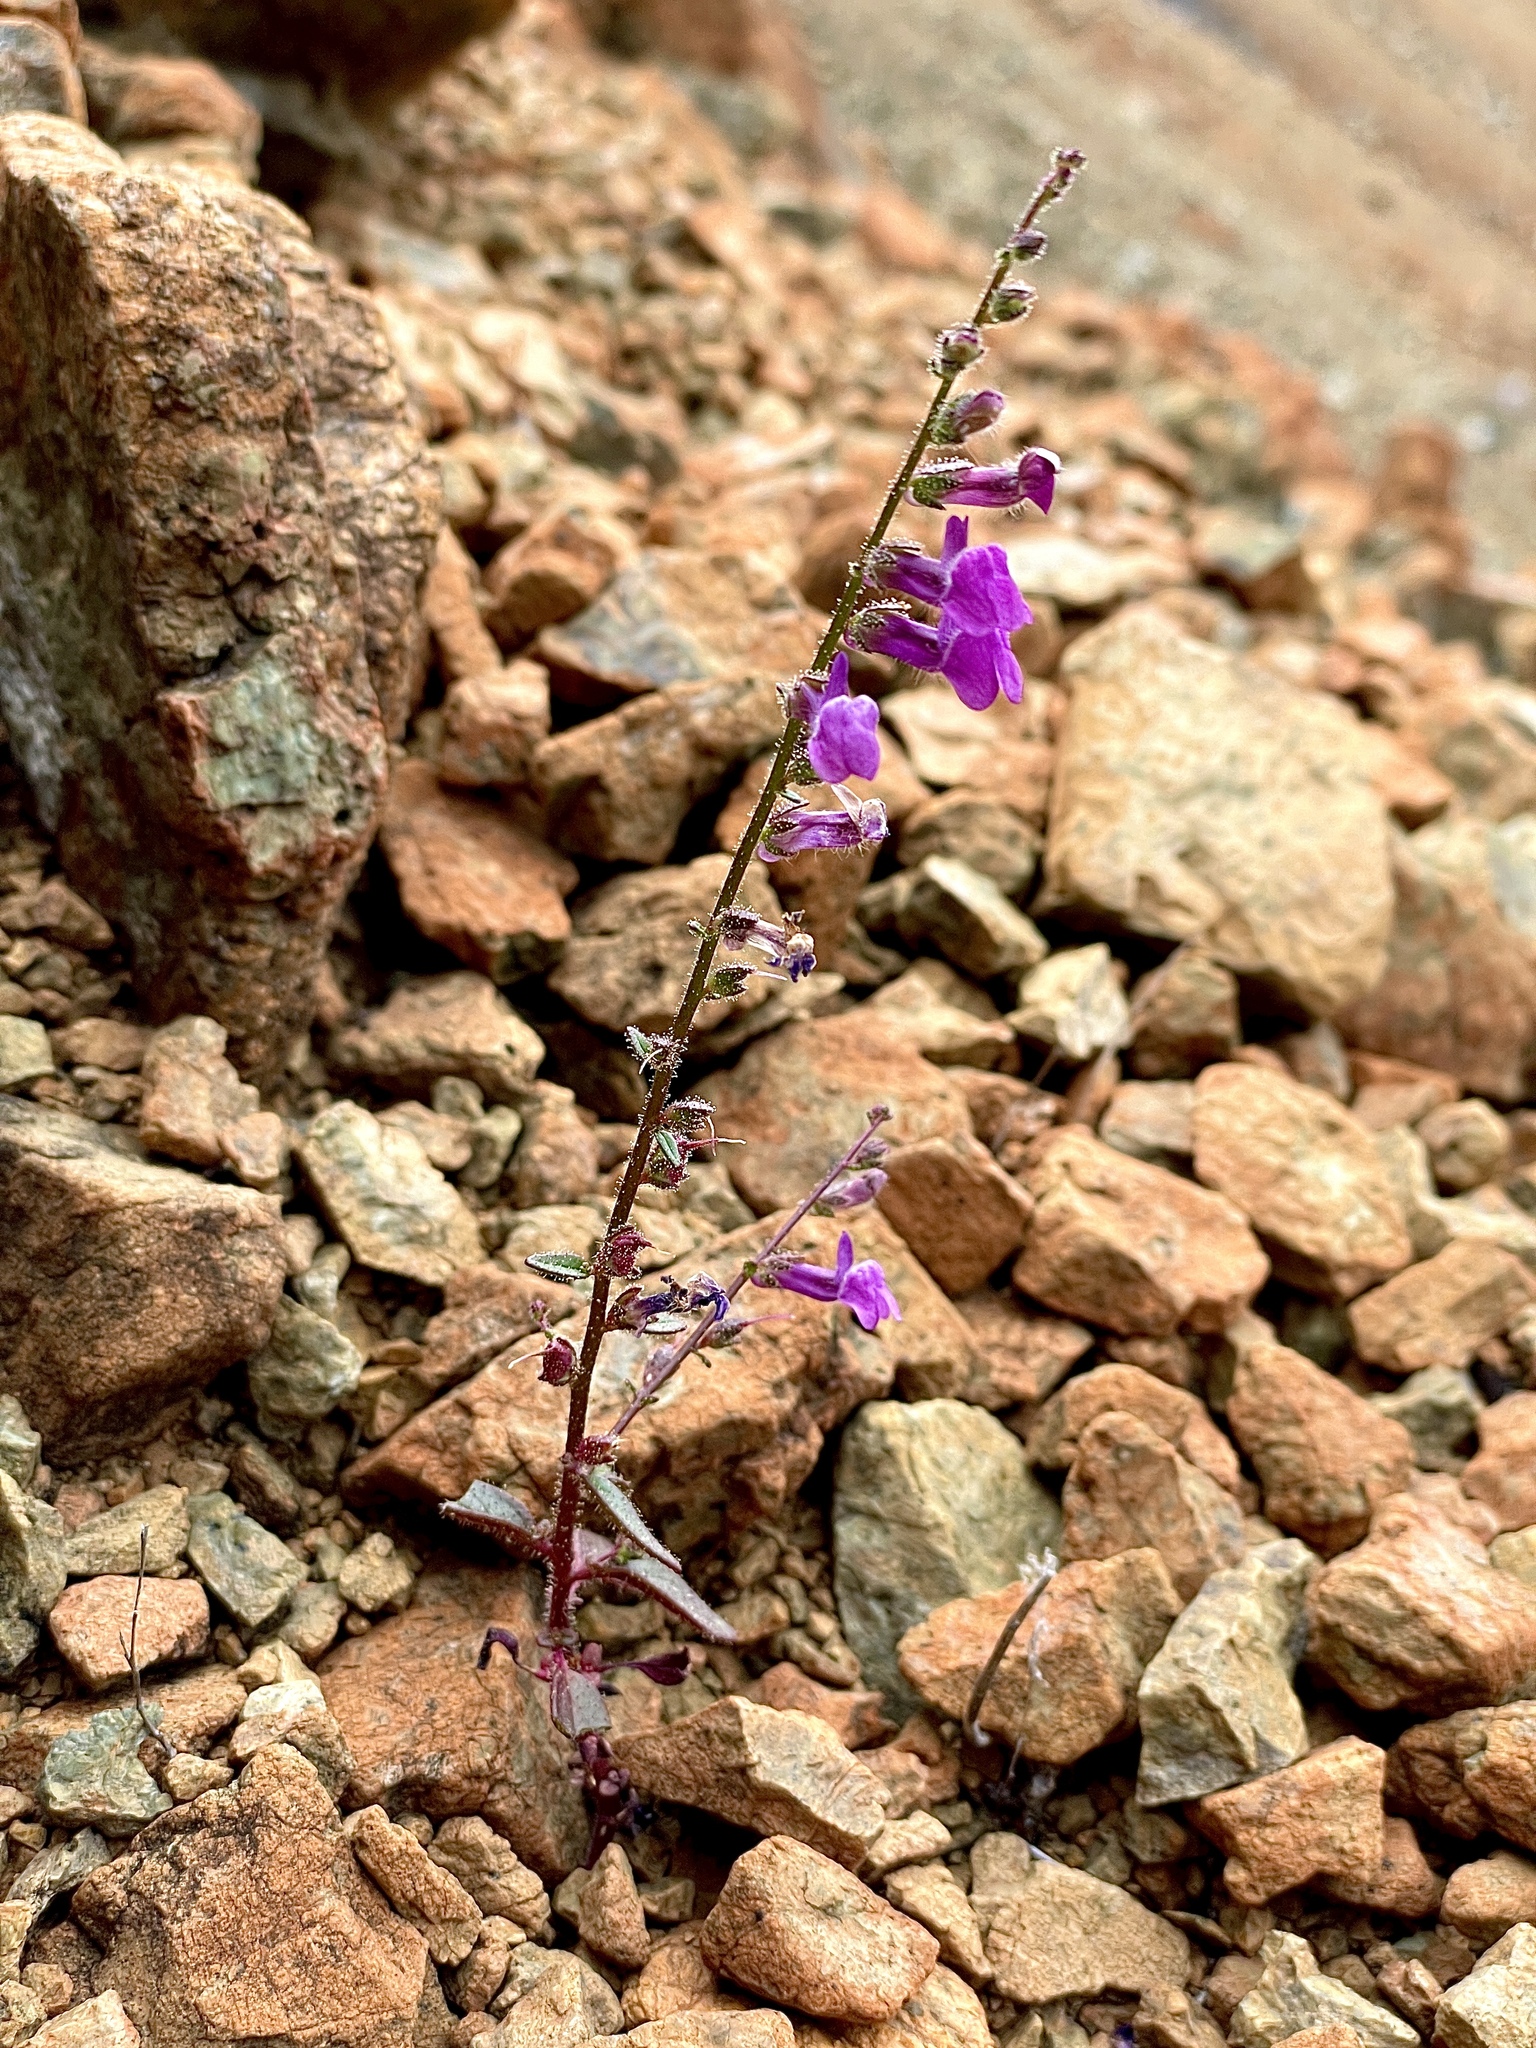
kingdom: Plantae
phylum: Tracheophyta
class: Magnoliopsida
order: Lamiales
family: Plantaginaceae
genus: Sairocarpus
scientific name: Sairocarpus vexillocalyculatus
